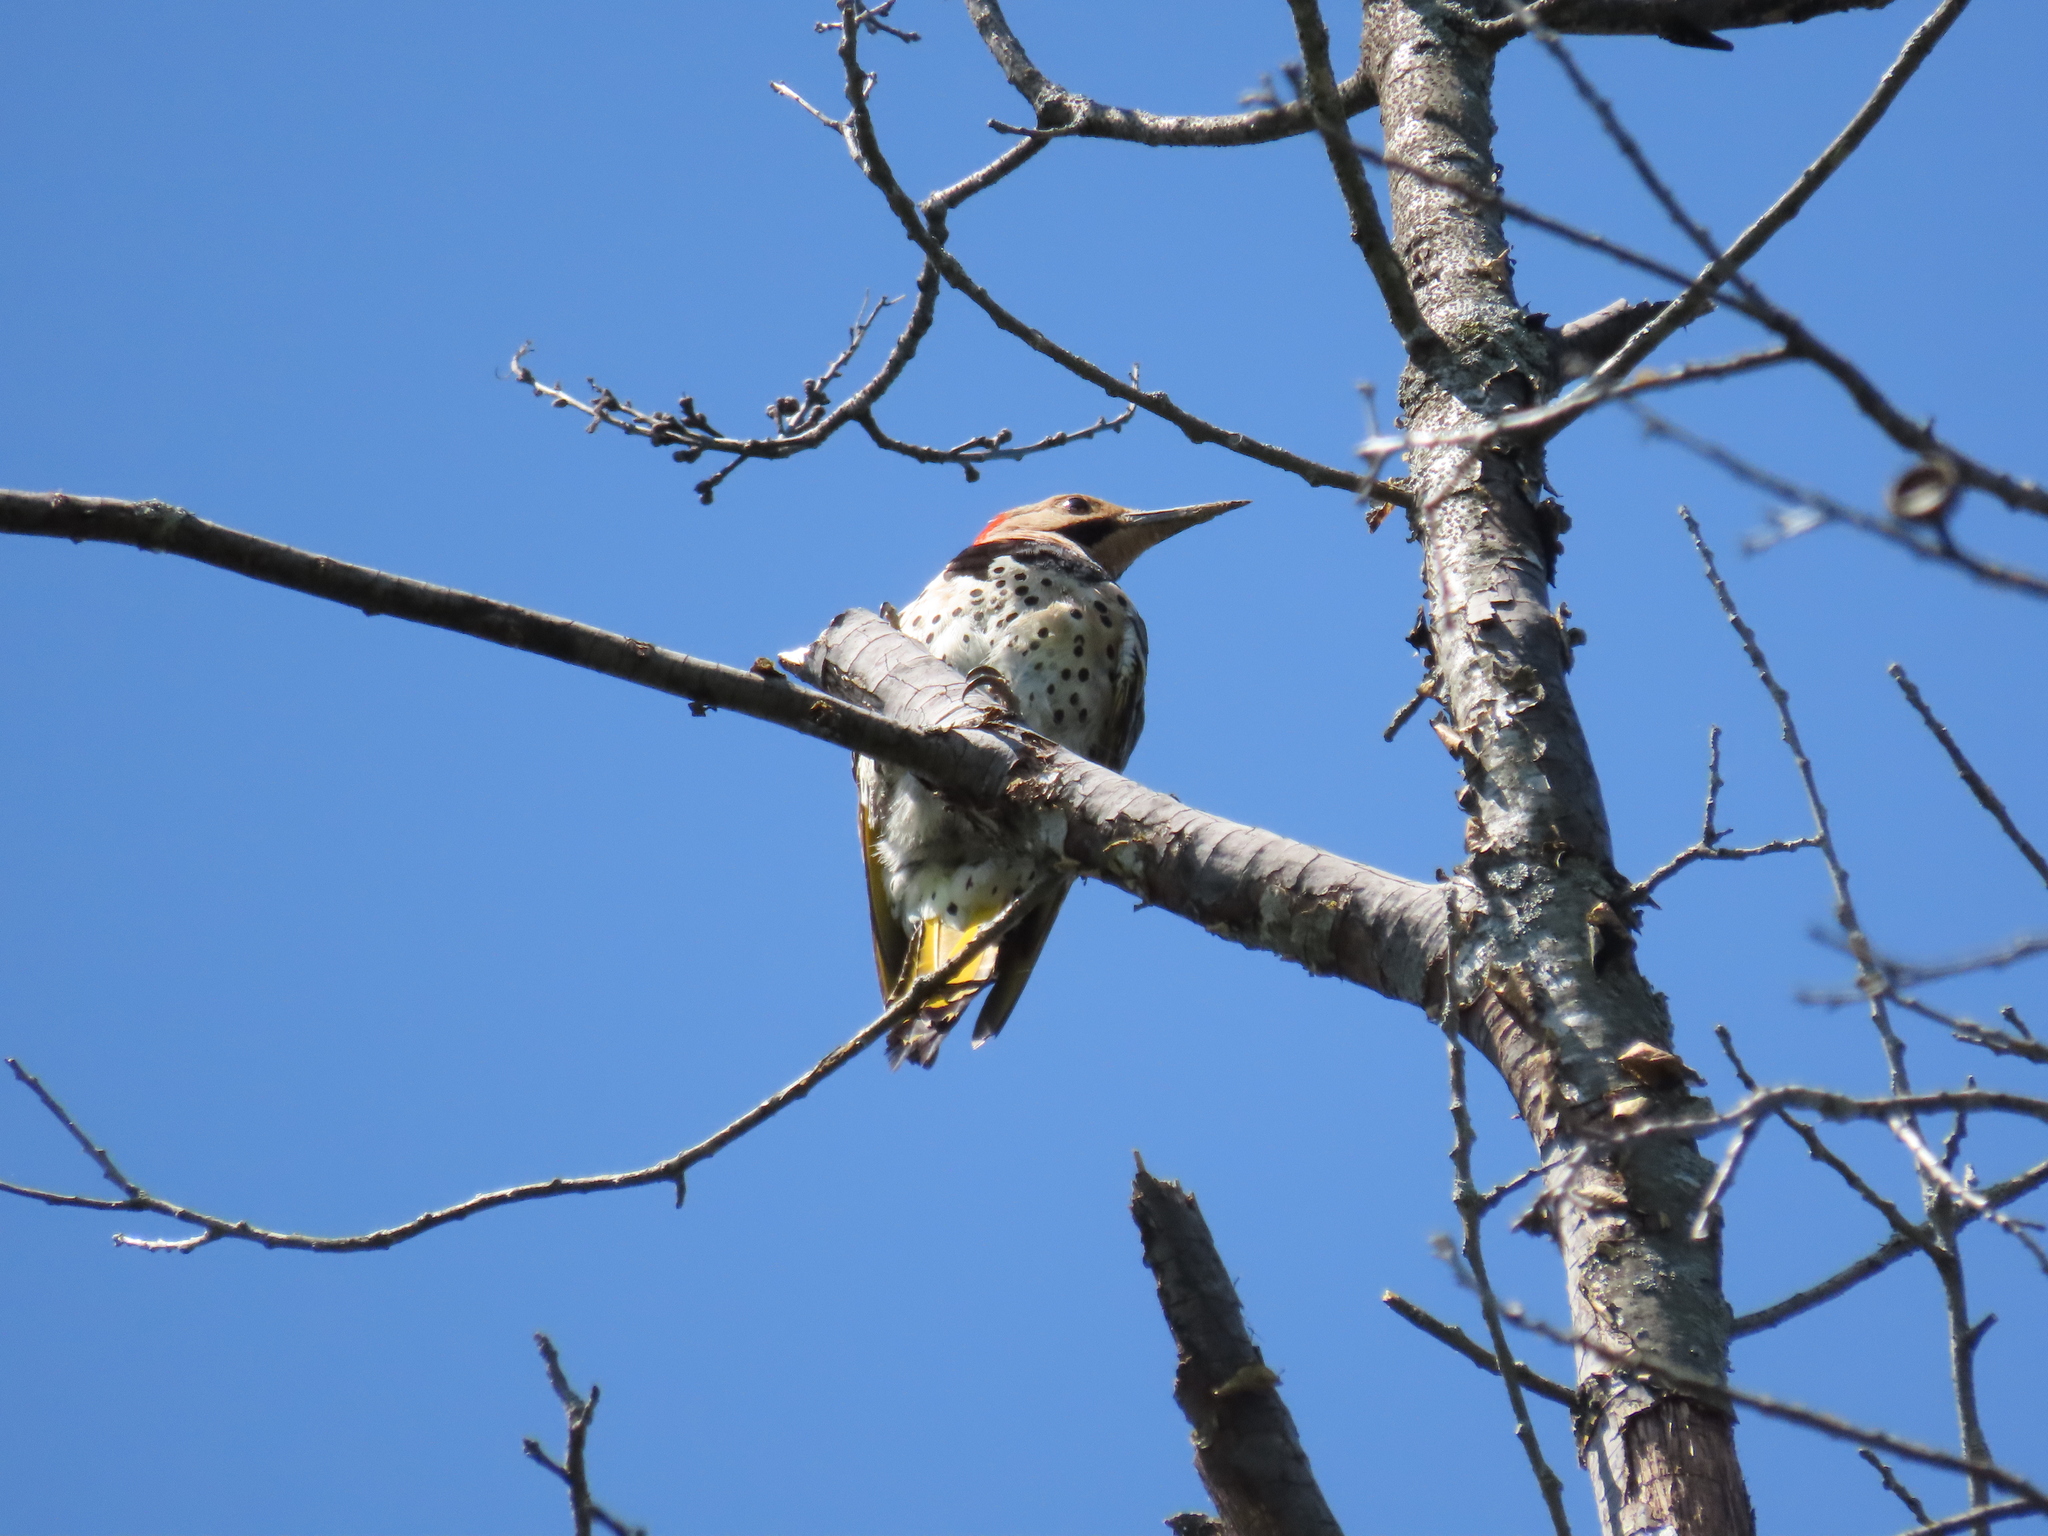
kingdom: Animalia
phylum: Chordata
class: Aves
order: Piciformes
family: Picidae
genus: Colaptes
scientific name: Colaptes auratus
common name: Northern flicker
